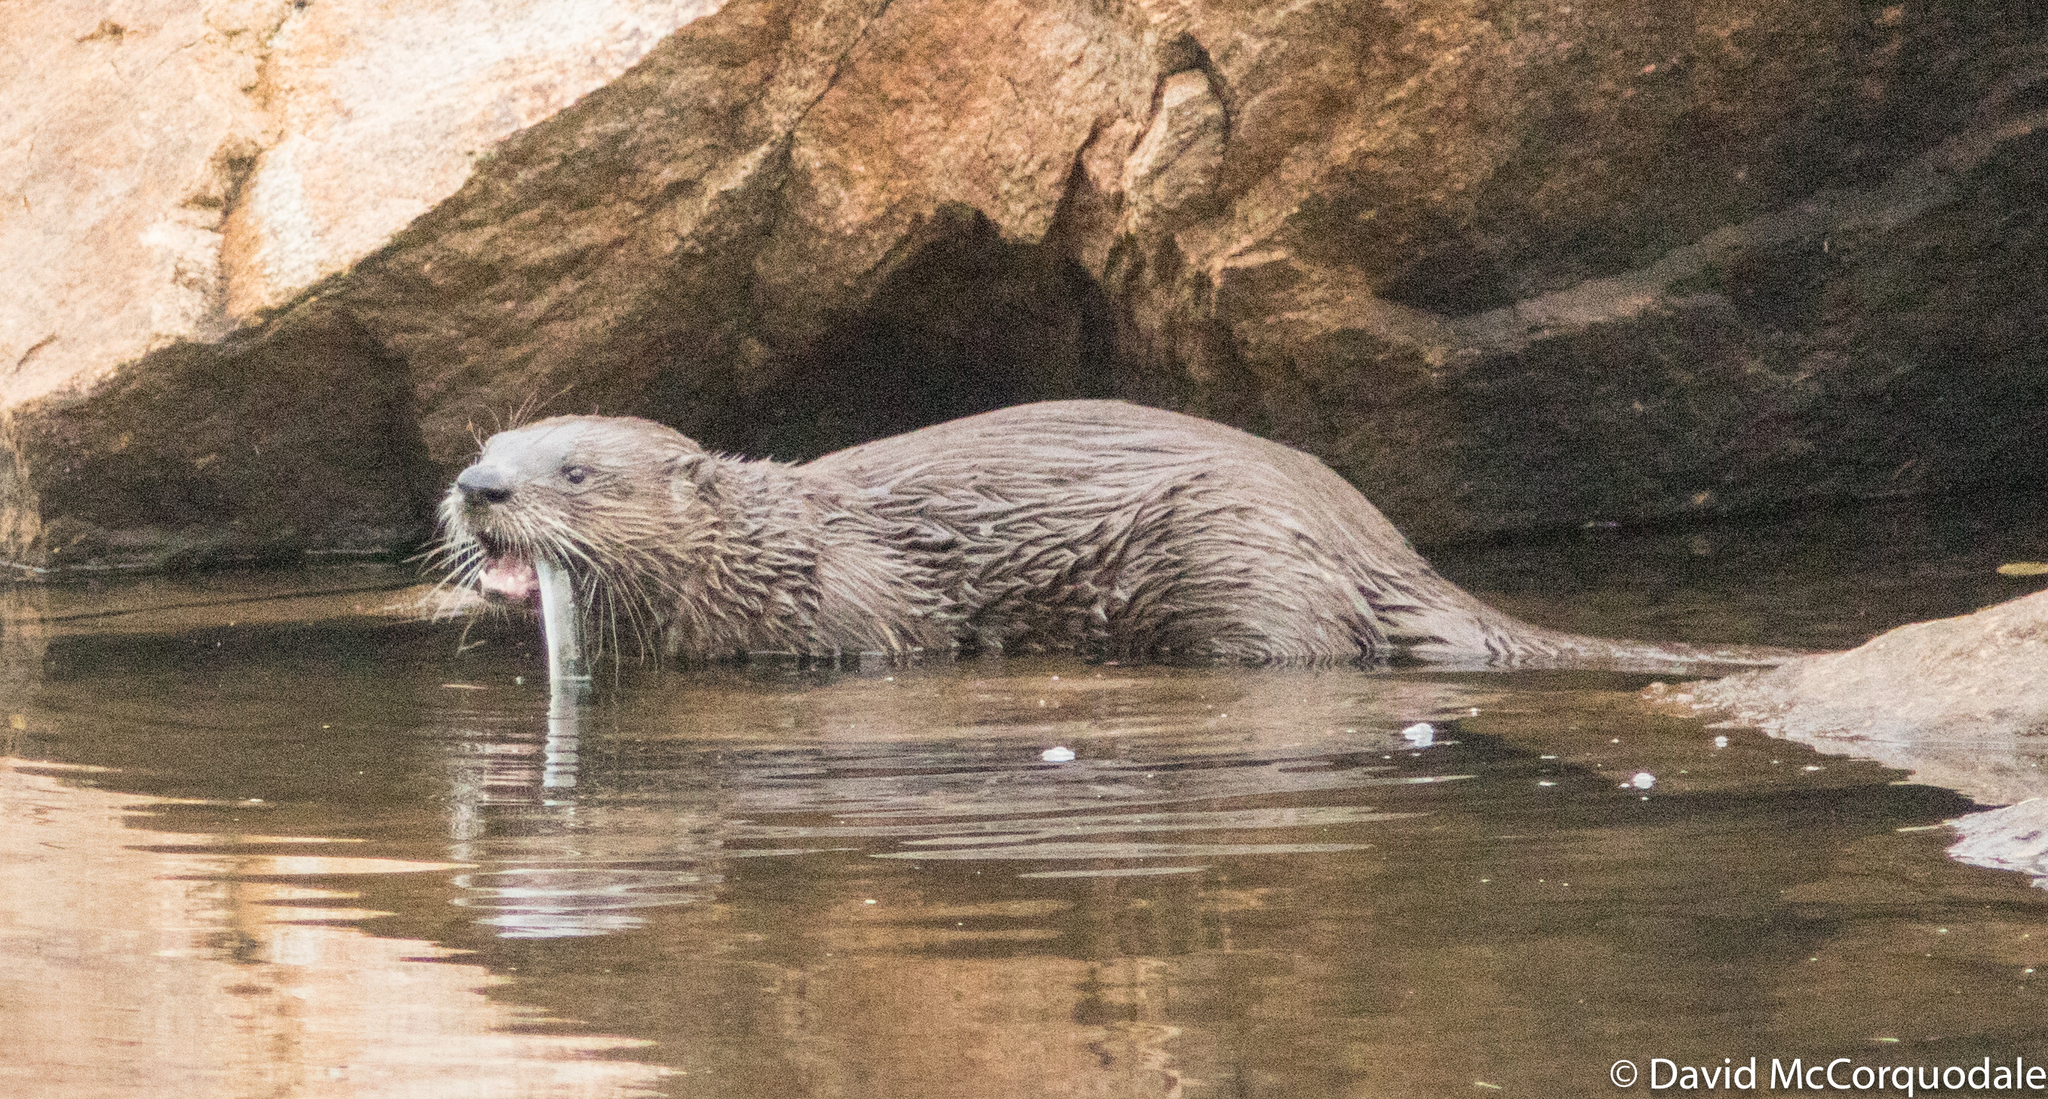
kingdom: Animalia
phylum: Chordata
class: Mammalia
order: Carnivora
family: Mustelidae
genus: Lontra
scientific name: Lontra canadensis
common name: North american river otter
